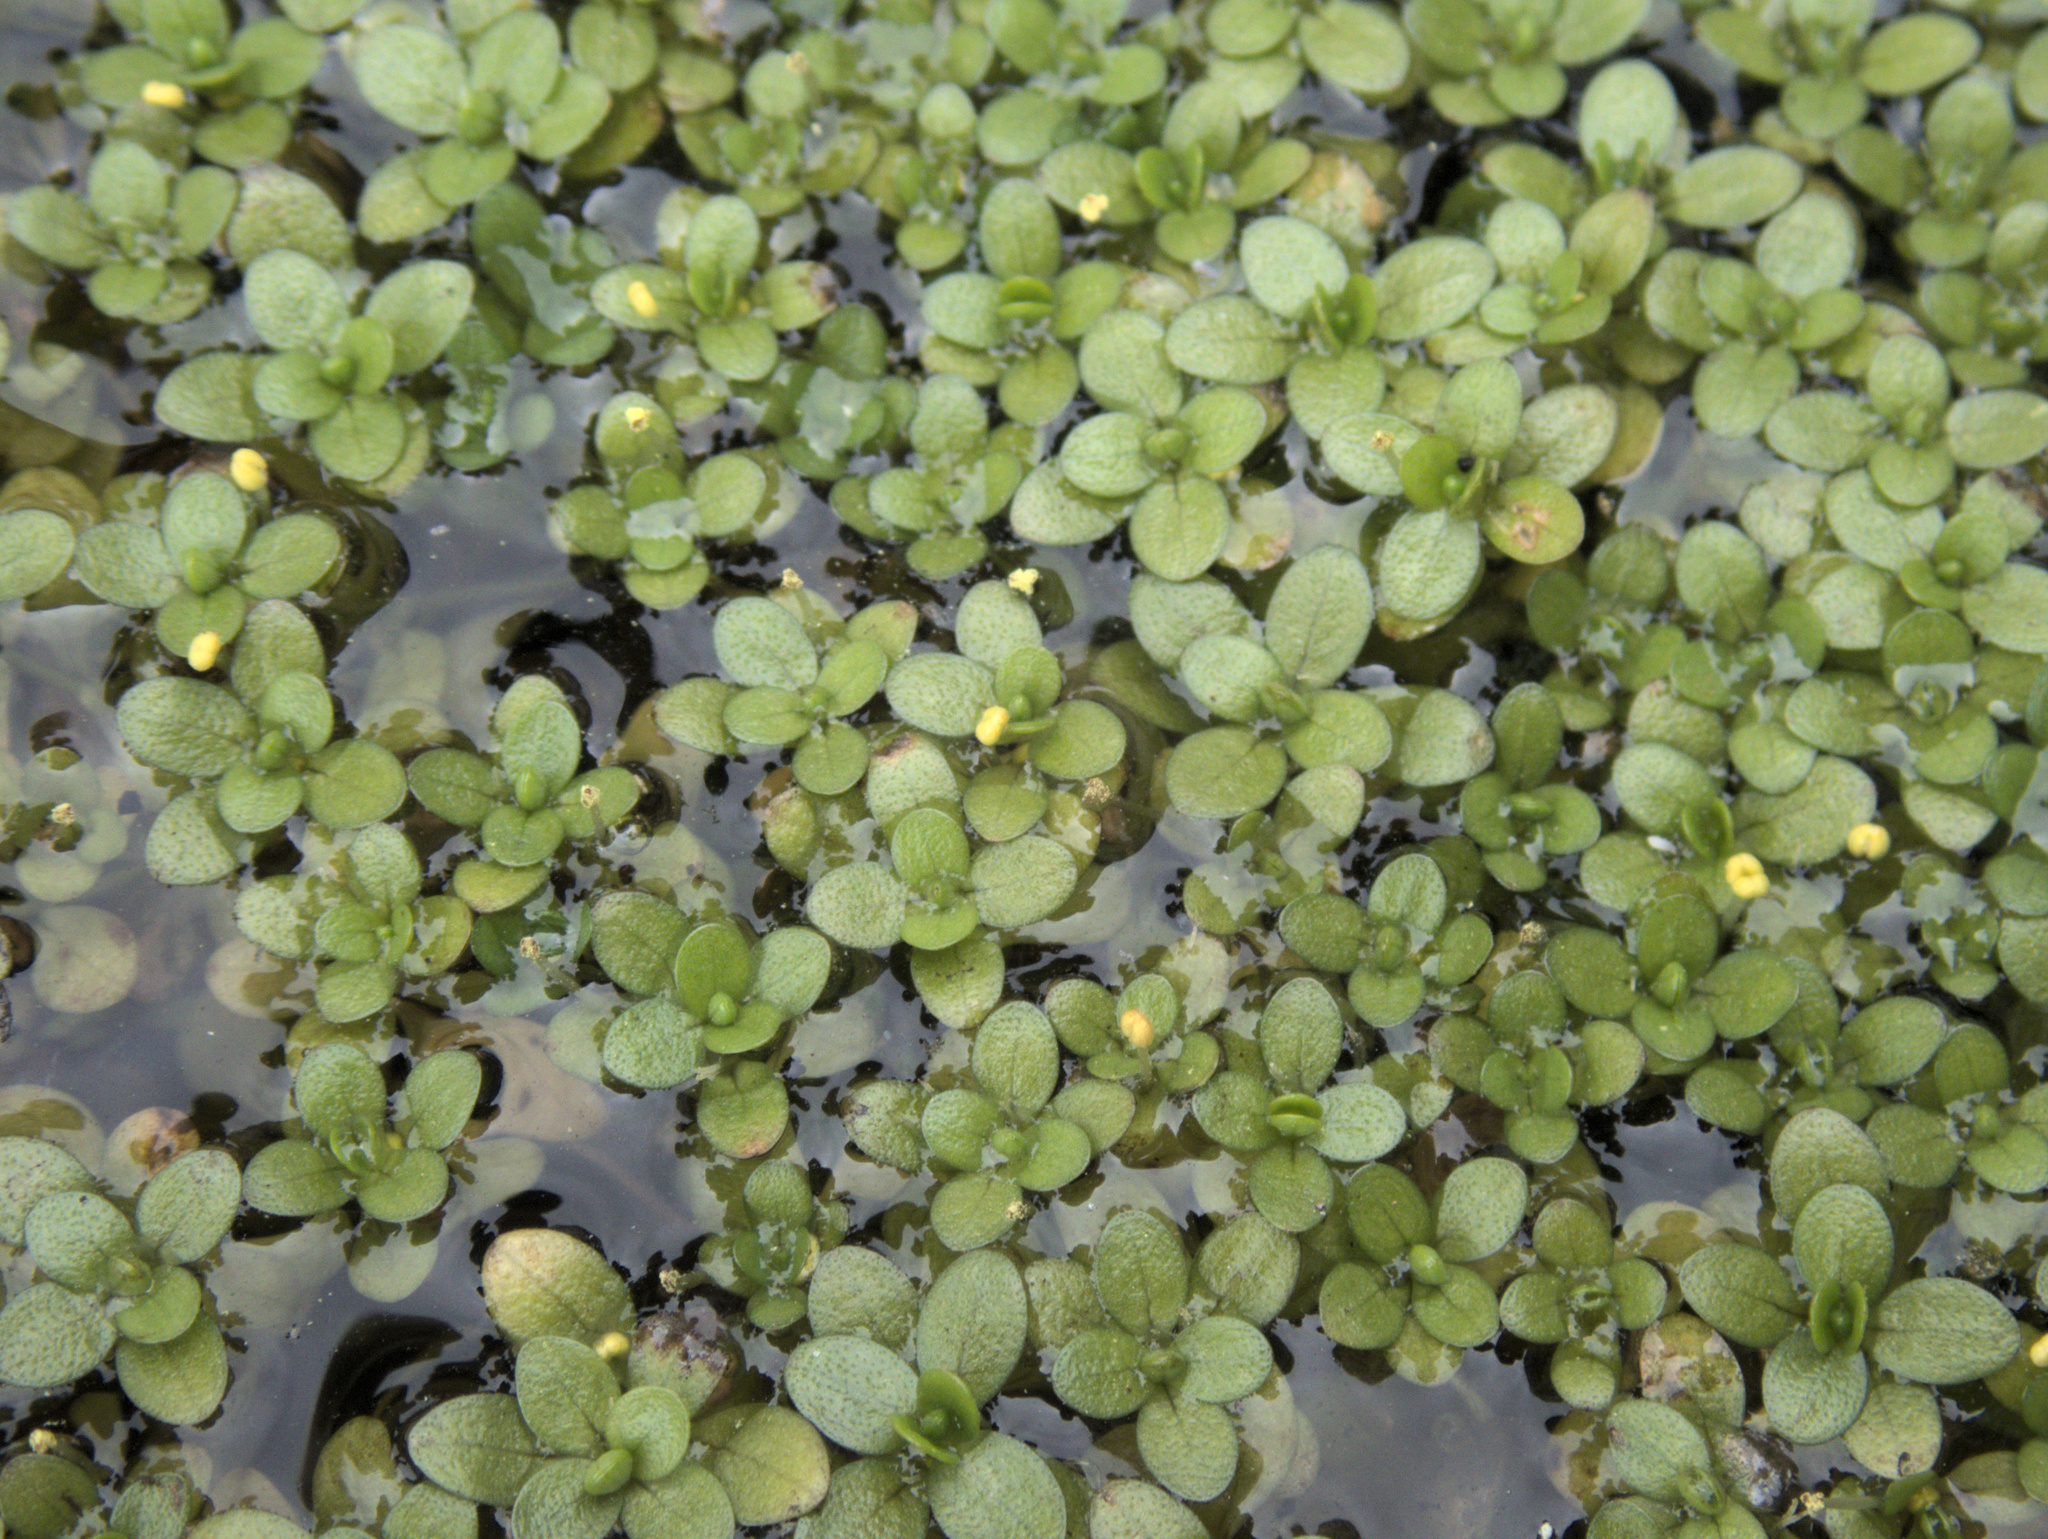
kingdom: Plantae
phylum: Tracheophyta
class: Magnoliopsida
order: Lamiales
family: Plantaginaceae
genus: Callitriche
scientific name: Callitriche chathamensis
